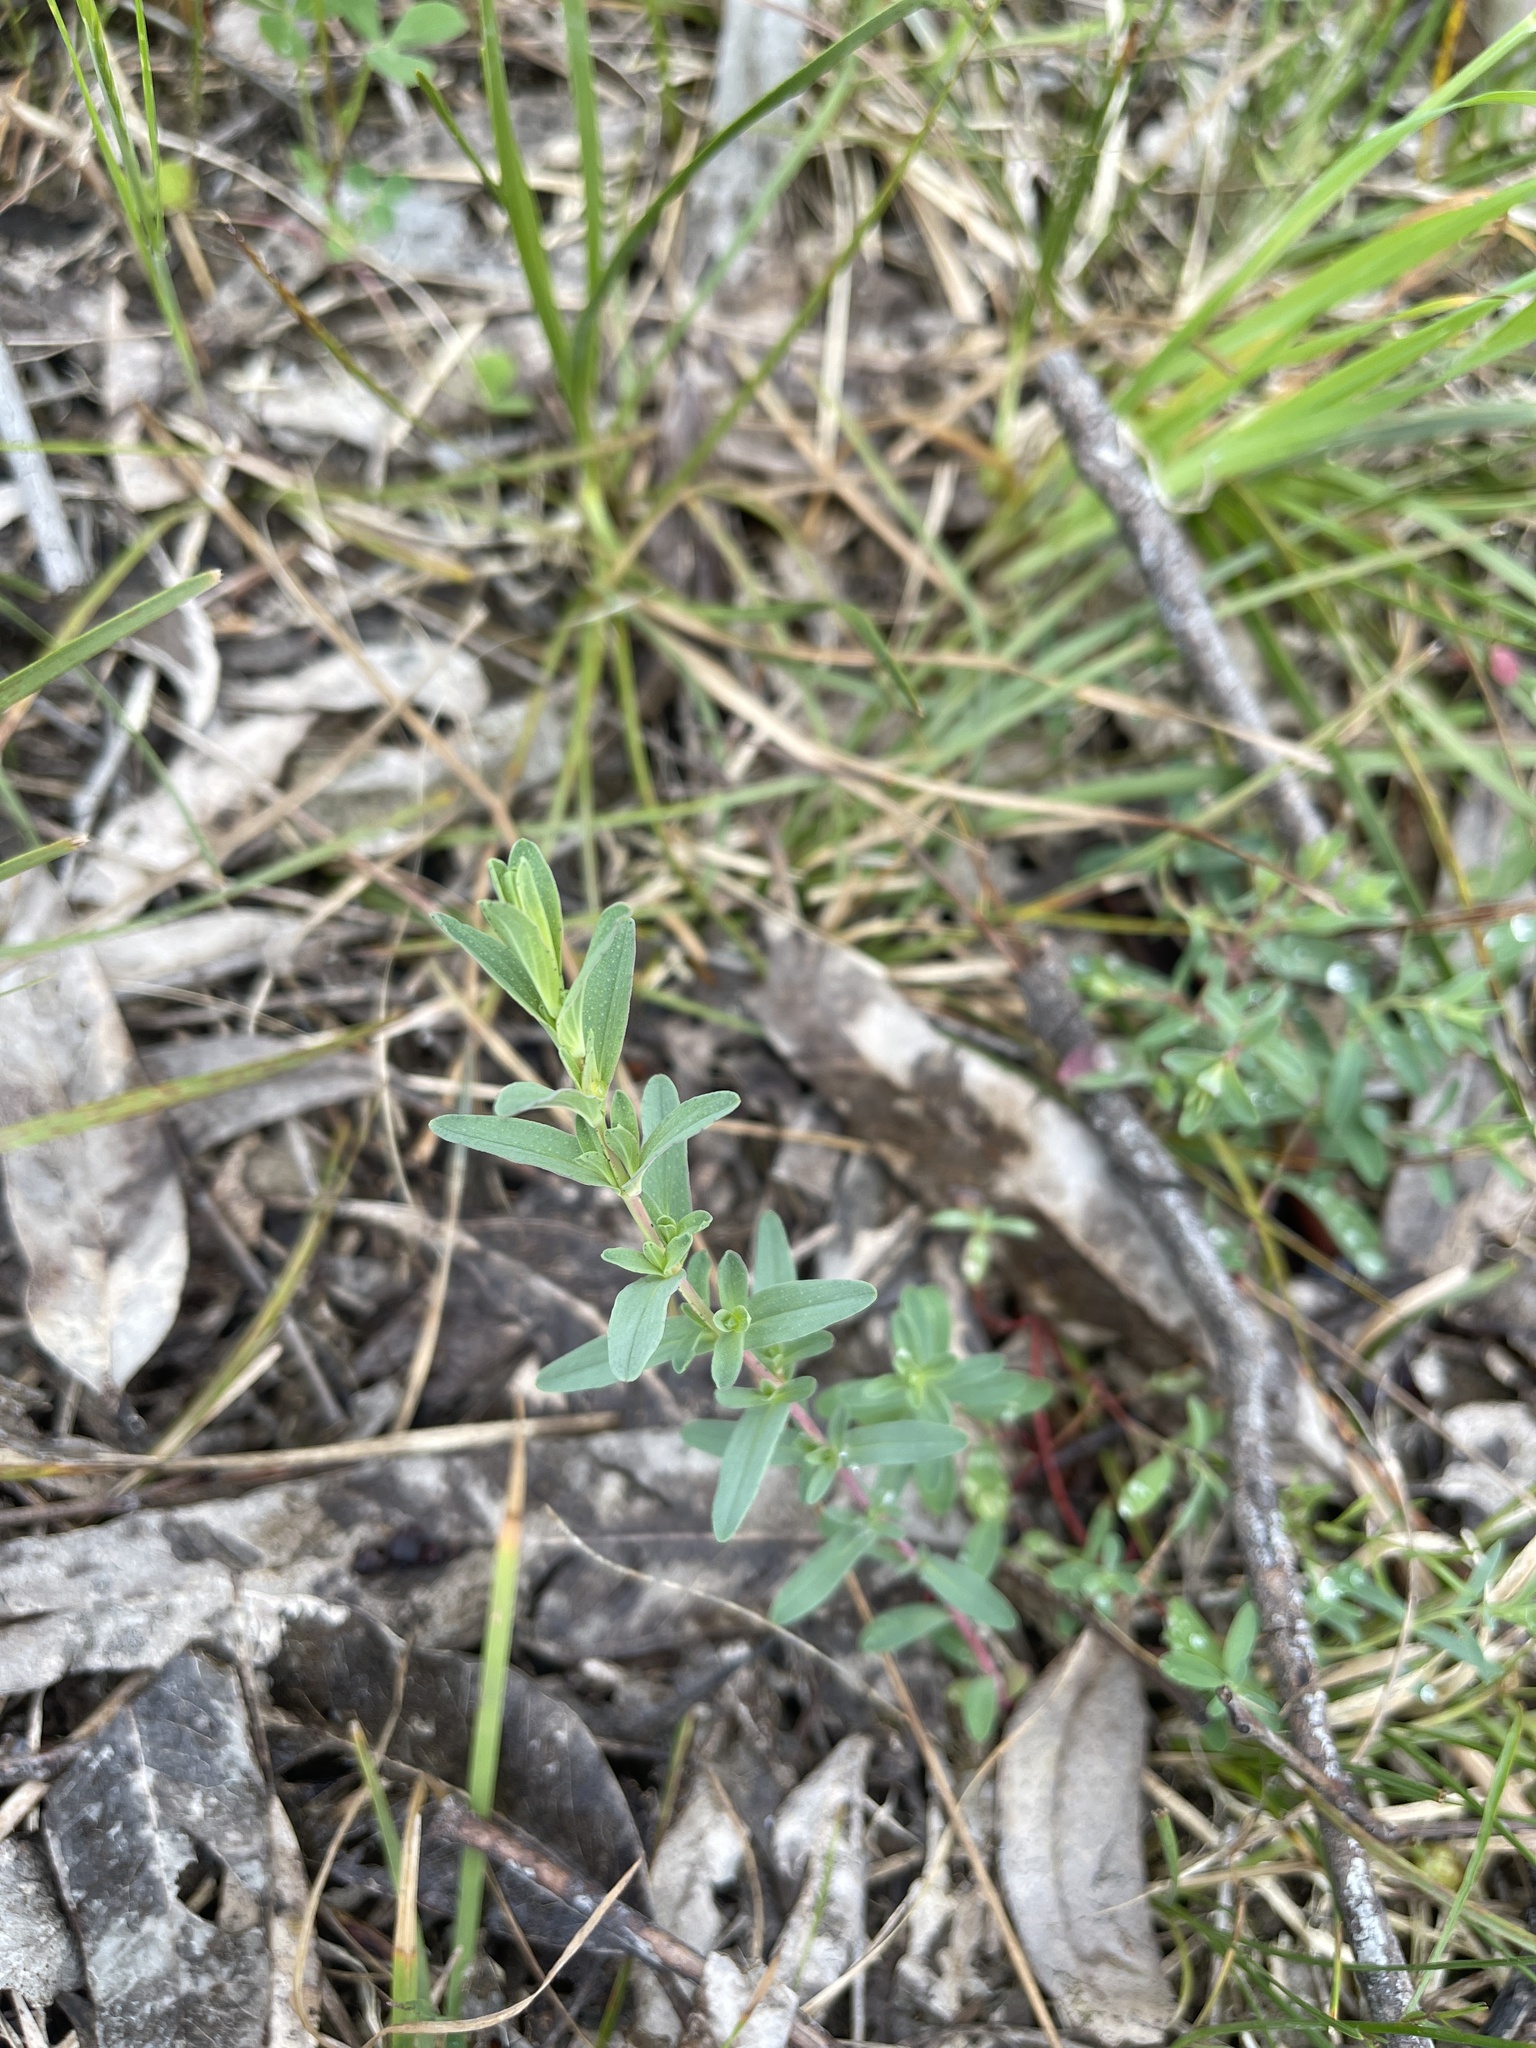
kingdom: Plantae
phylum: Tracheophyta
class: Magnoliopsida
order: Malpighiales
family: Hypericaceae
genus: Hypericum
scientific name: Hypericum perforatum
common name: Common st. johnswort
